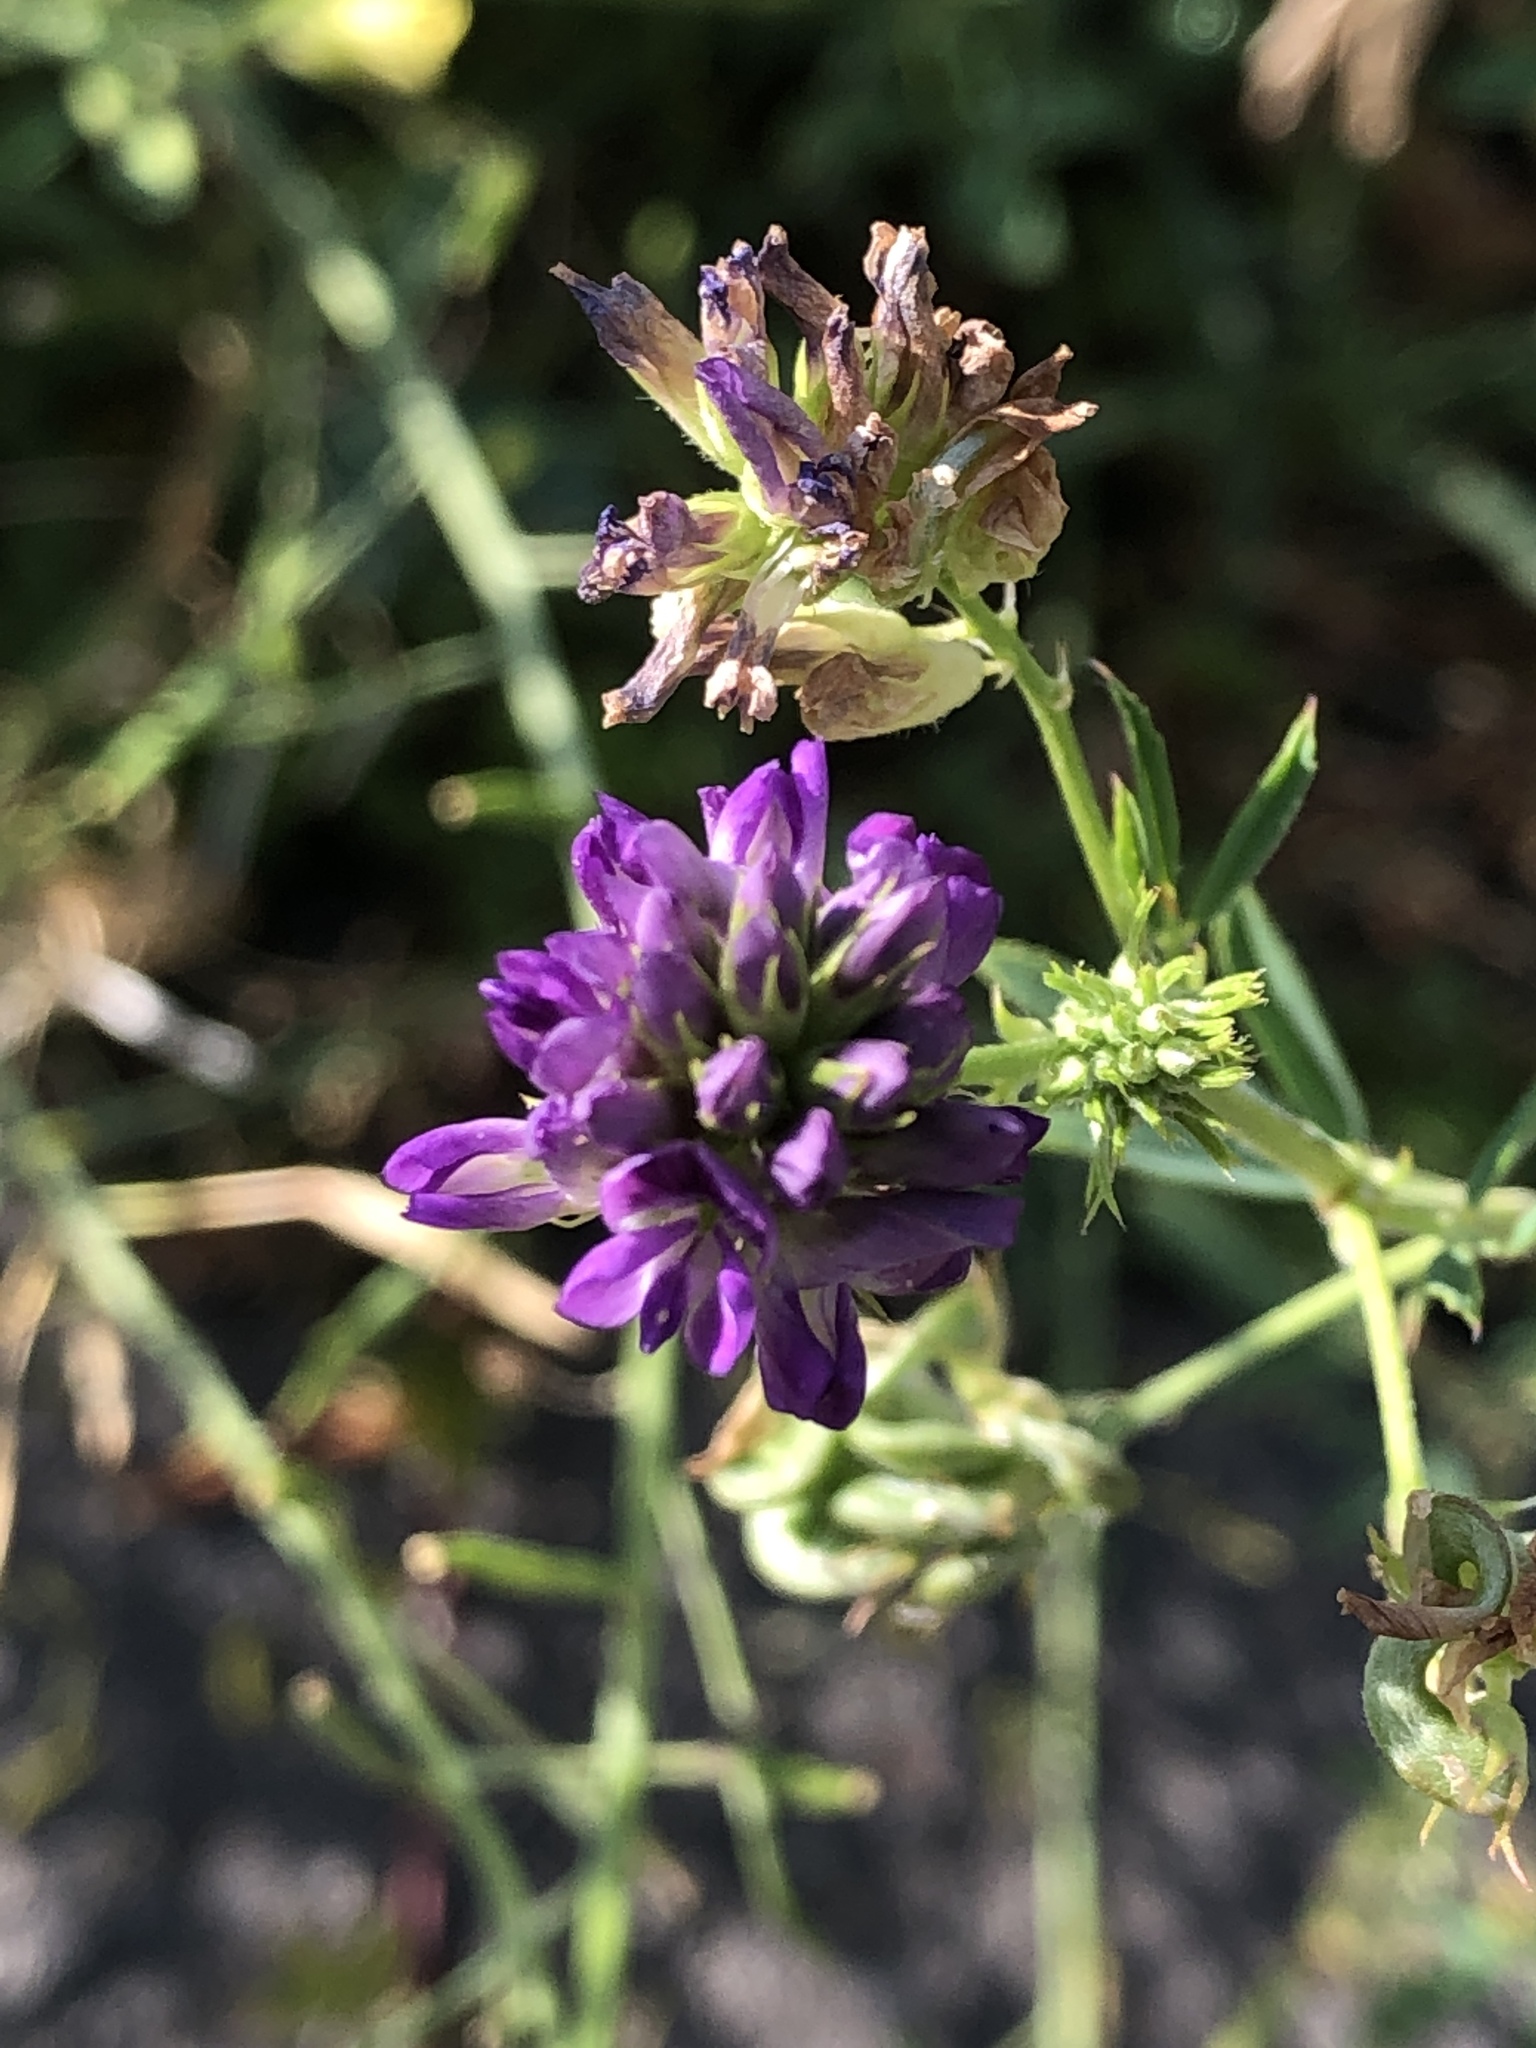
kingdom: Plantae
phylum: Tracheophyta
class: Magnoliopsida
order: Fabales
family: Fabaceae
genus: Medicago
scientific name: Medicago sativa
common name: Alfalfa
